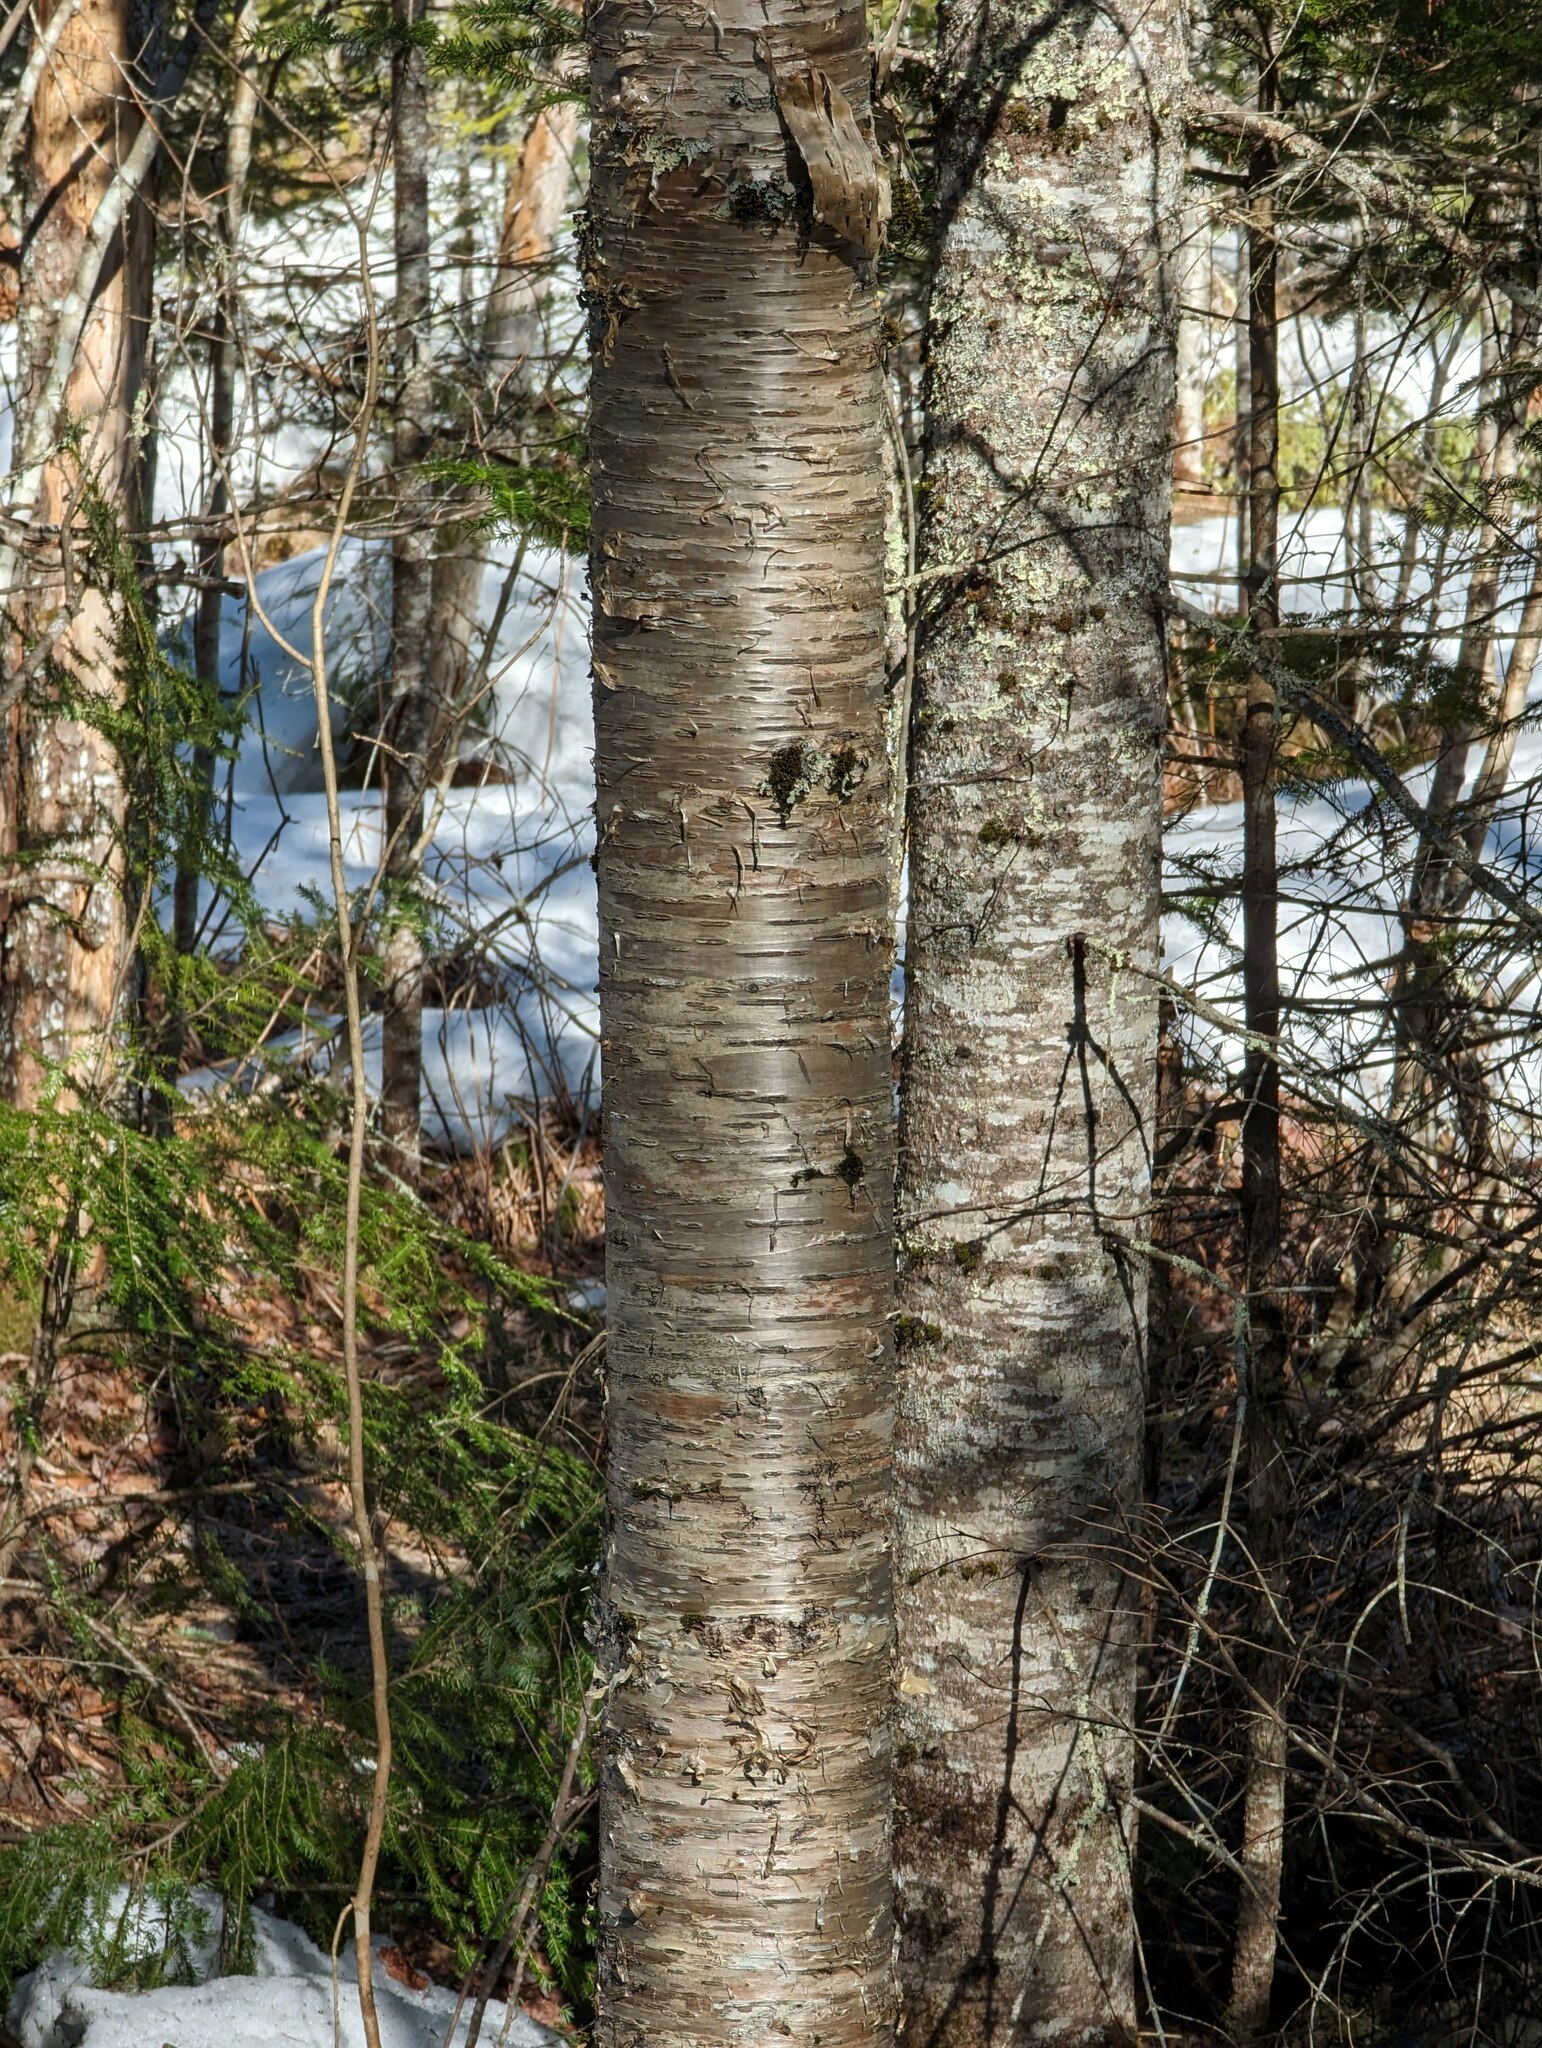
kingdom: Plantae
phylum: Tracheophyta
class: Magnoliopsida
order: Fagales
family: Betulaceae
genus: Betula
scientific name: Betula alleghaniensis
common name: Yellow birch
